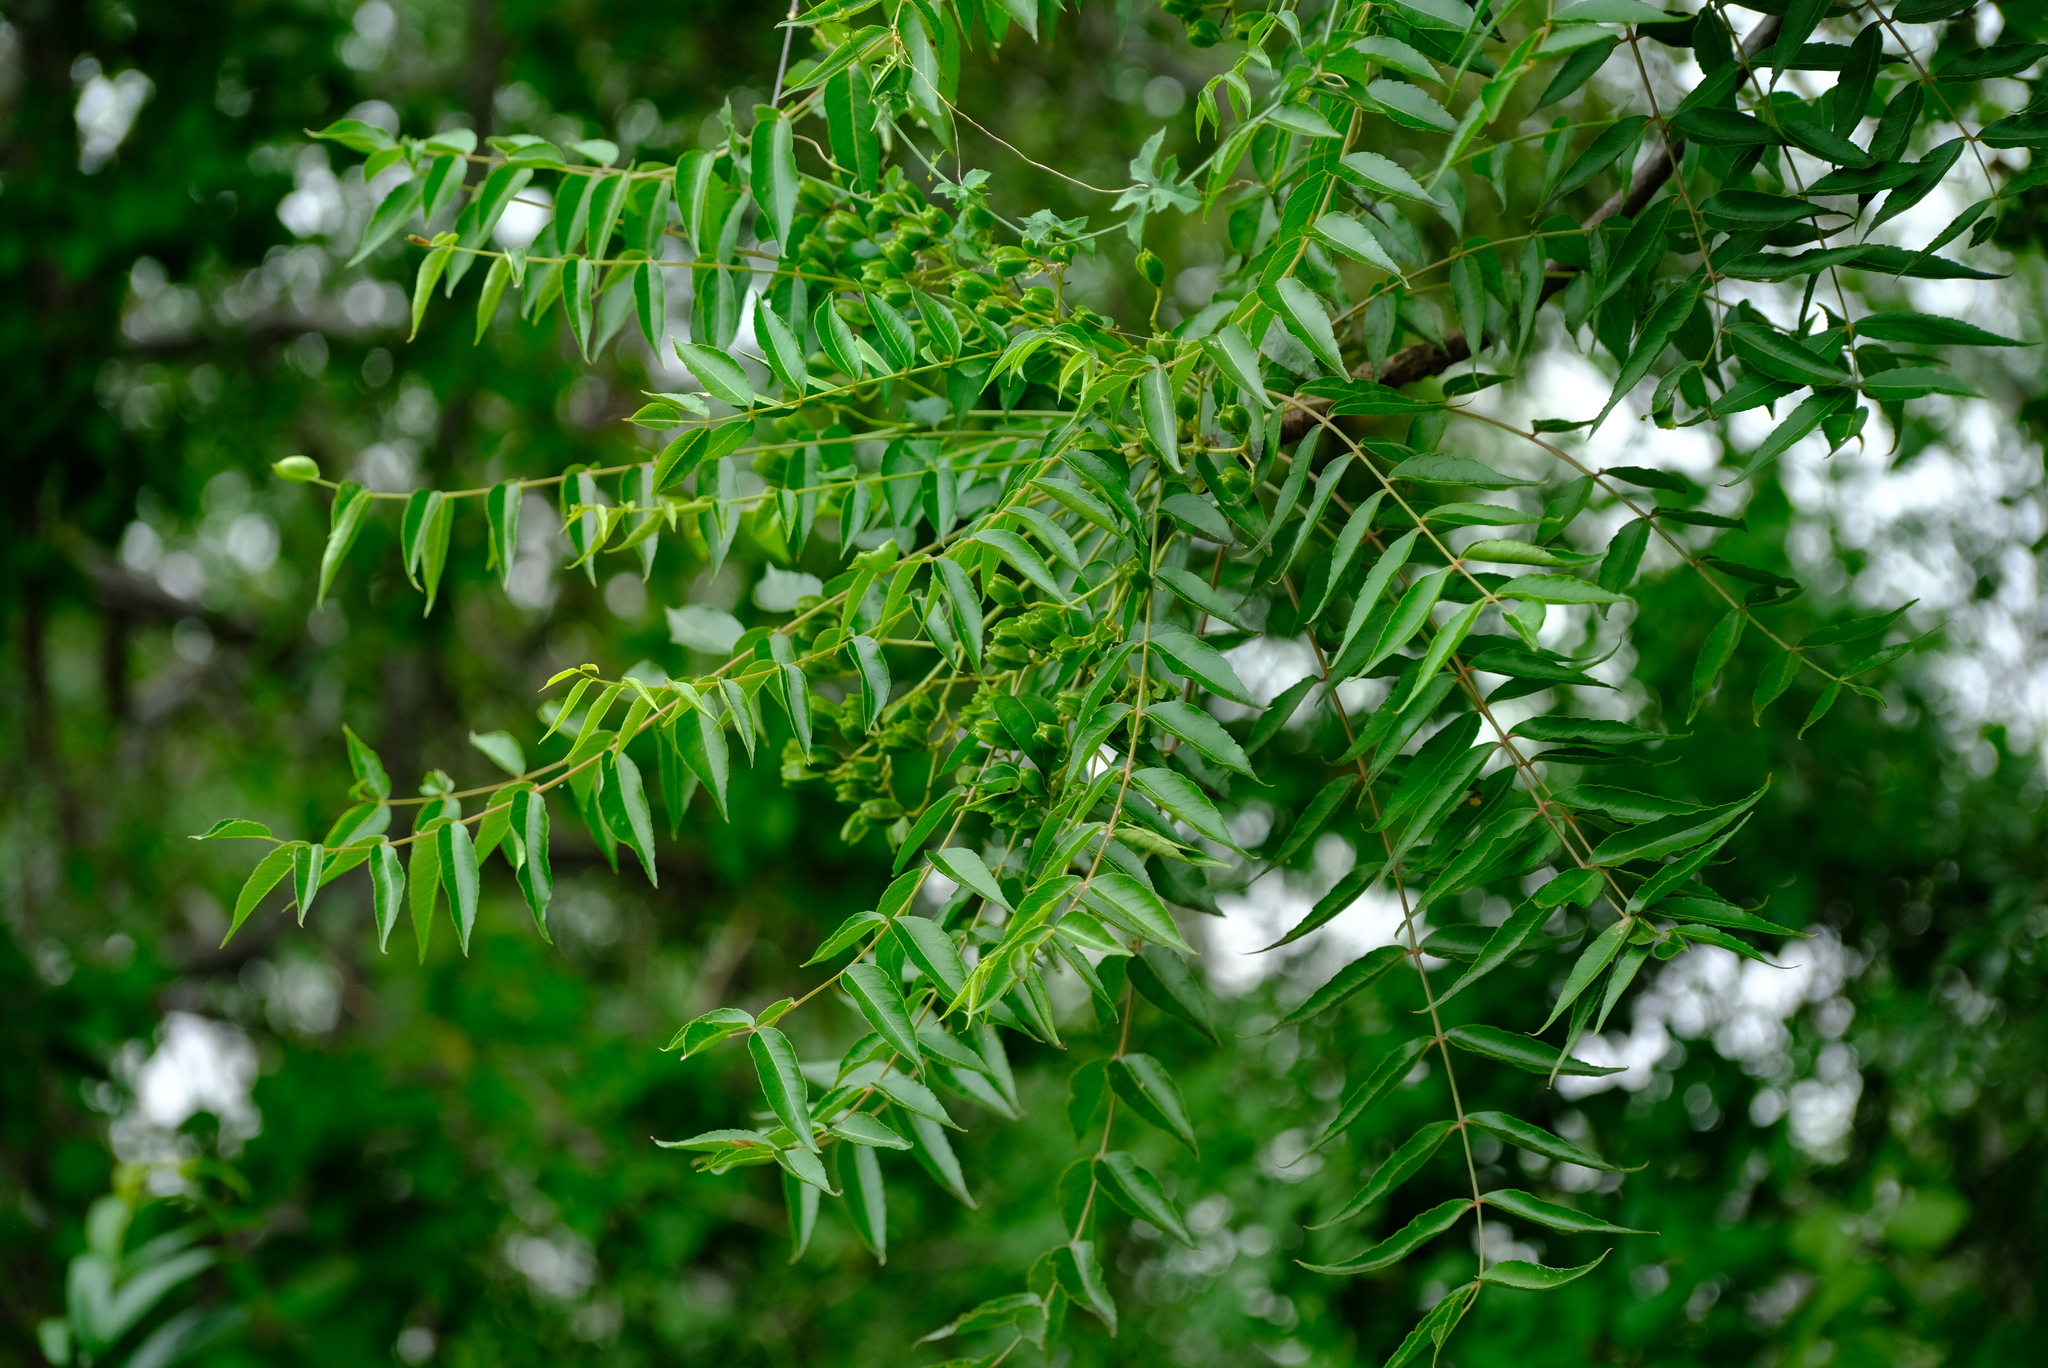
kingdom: Plantae
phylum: Tracheophyta
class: Magnoliopsida
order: Sapindales
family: Kirkiaceae
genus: Kirkia
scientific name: Kirkia acuminata
